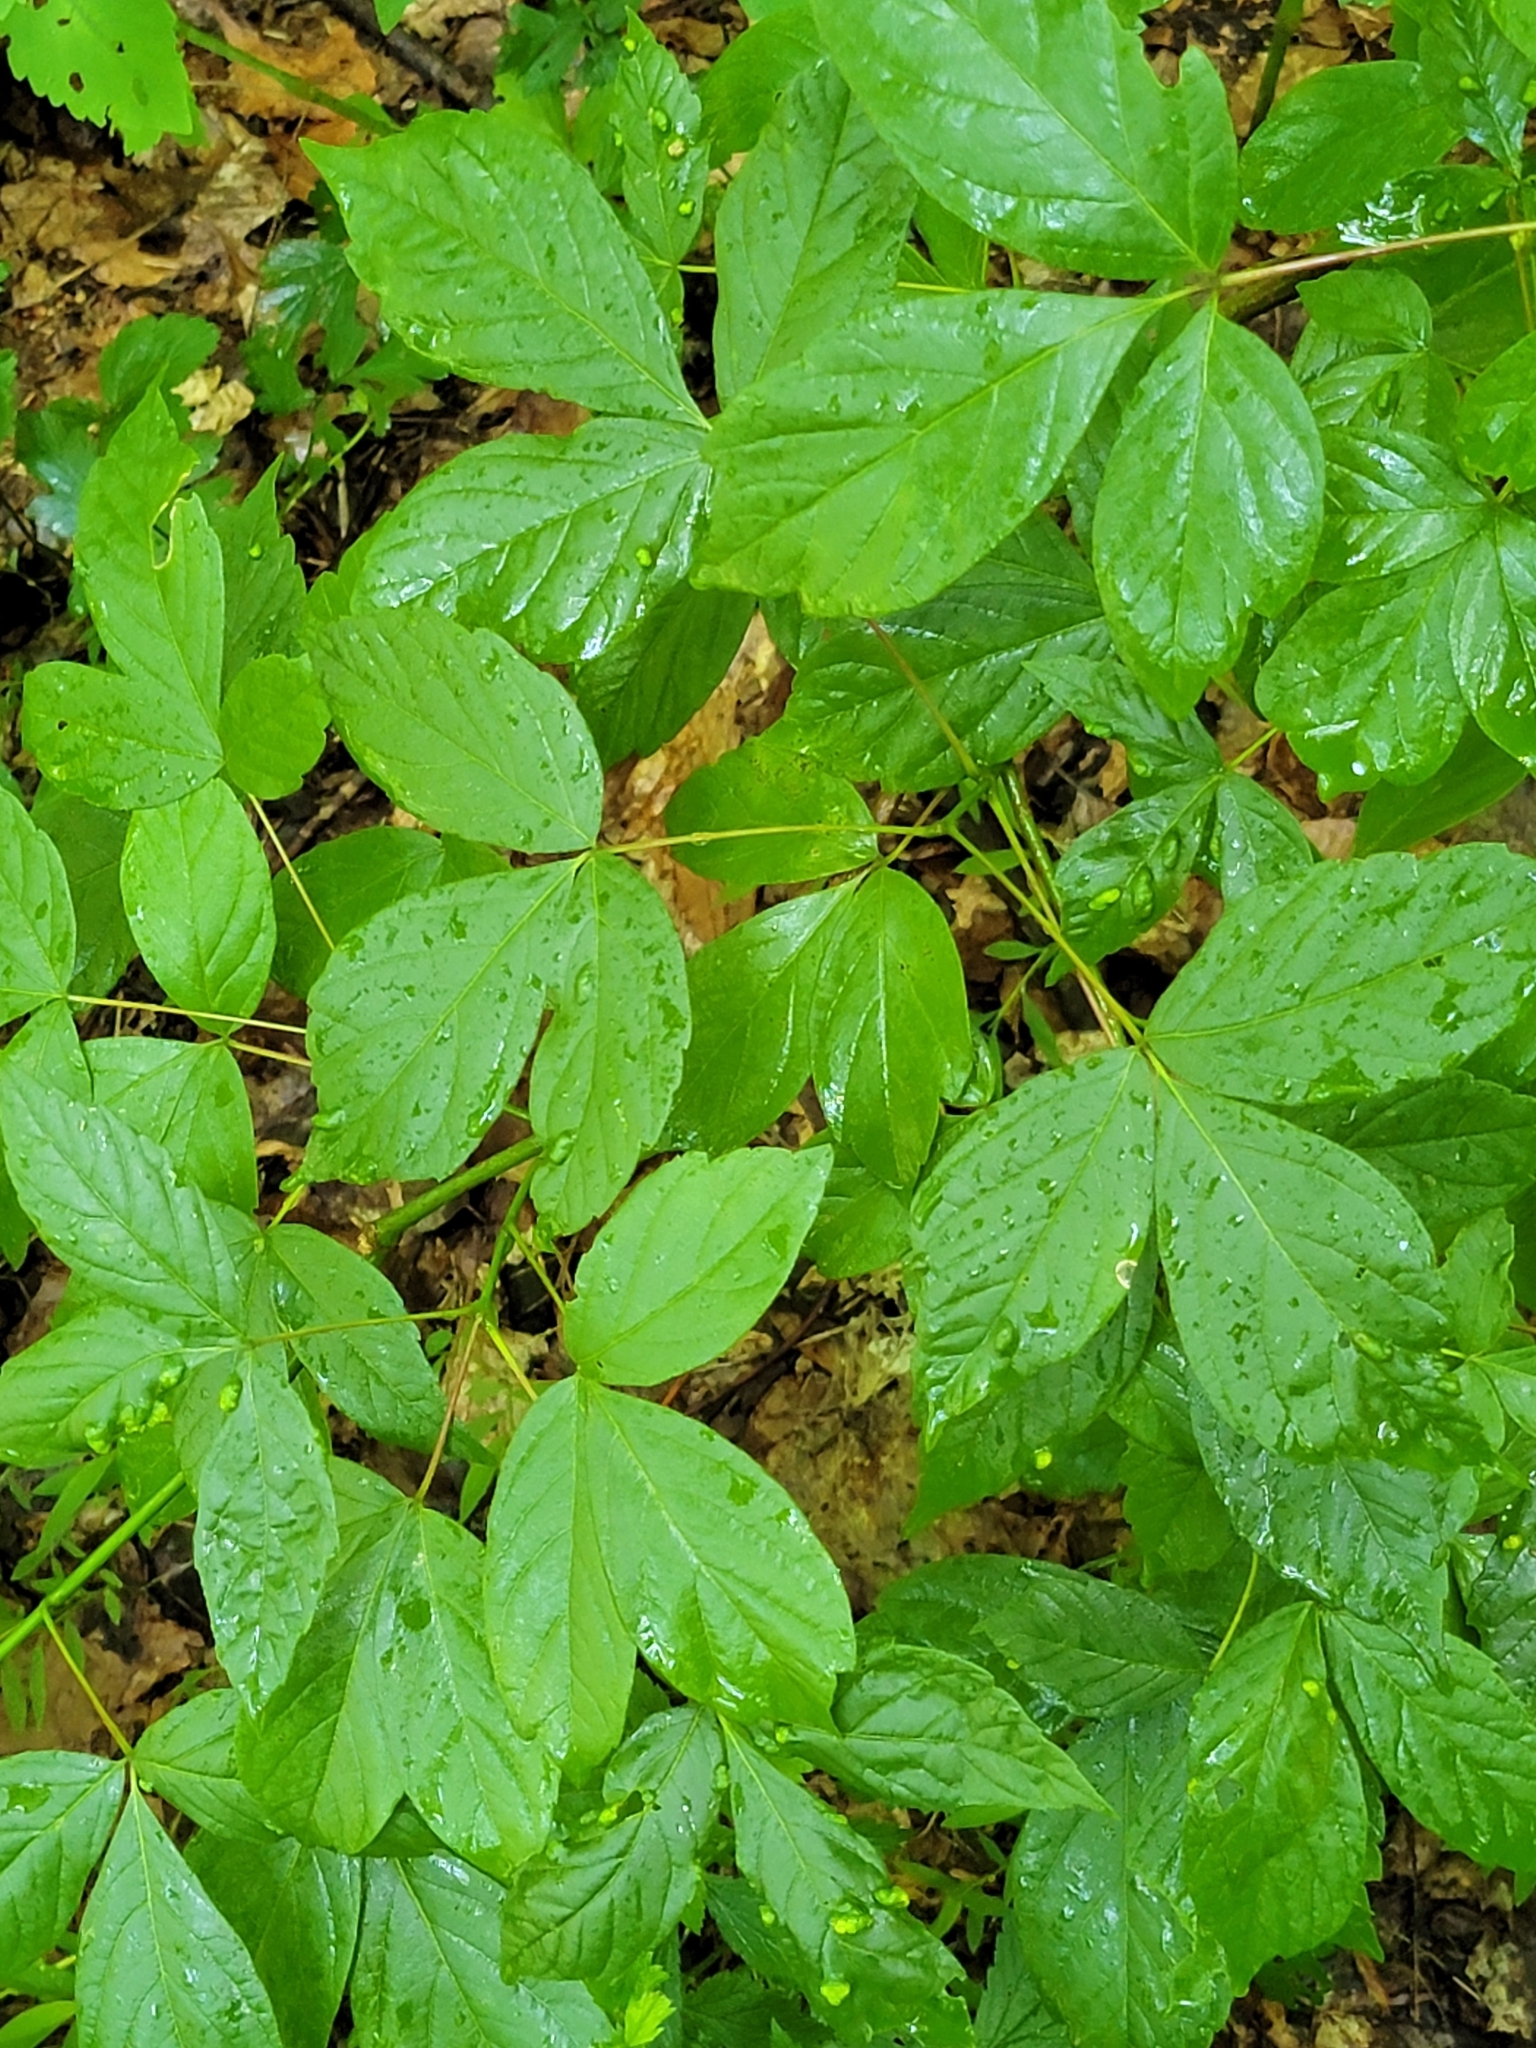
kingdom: Plantae
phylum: Tracheophyta
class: Magnoliopsida
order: Sapindales
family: Sapindaceae
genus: Acer
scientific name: Acer negundo
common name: Ashleaf maple
